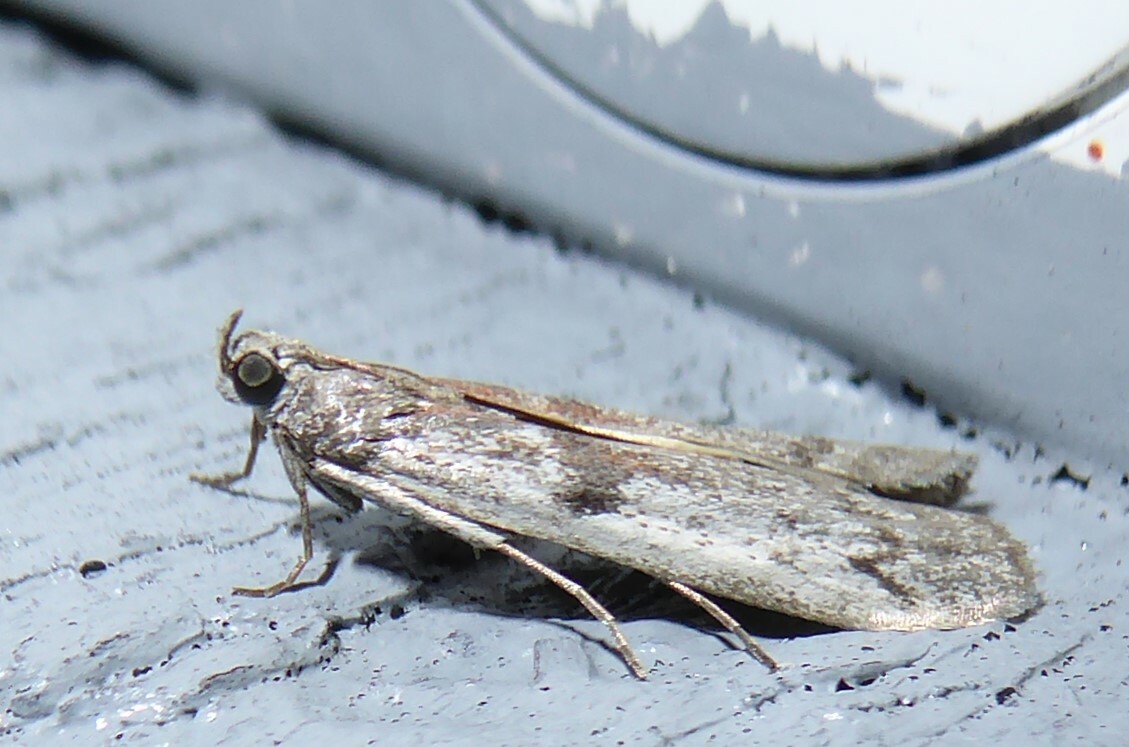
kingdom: Animalia
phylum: Arthropoda
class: Insecta
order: Lepidoptera
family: Pyralidae
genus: Patagoniodes
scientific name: Patagoniodes farinaria
